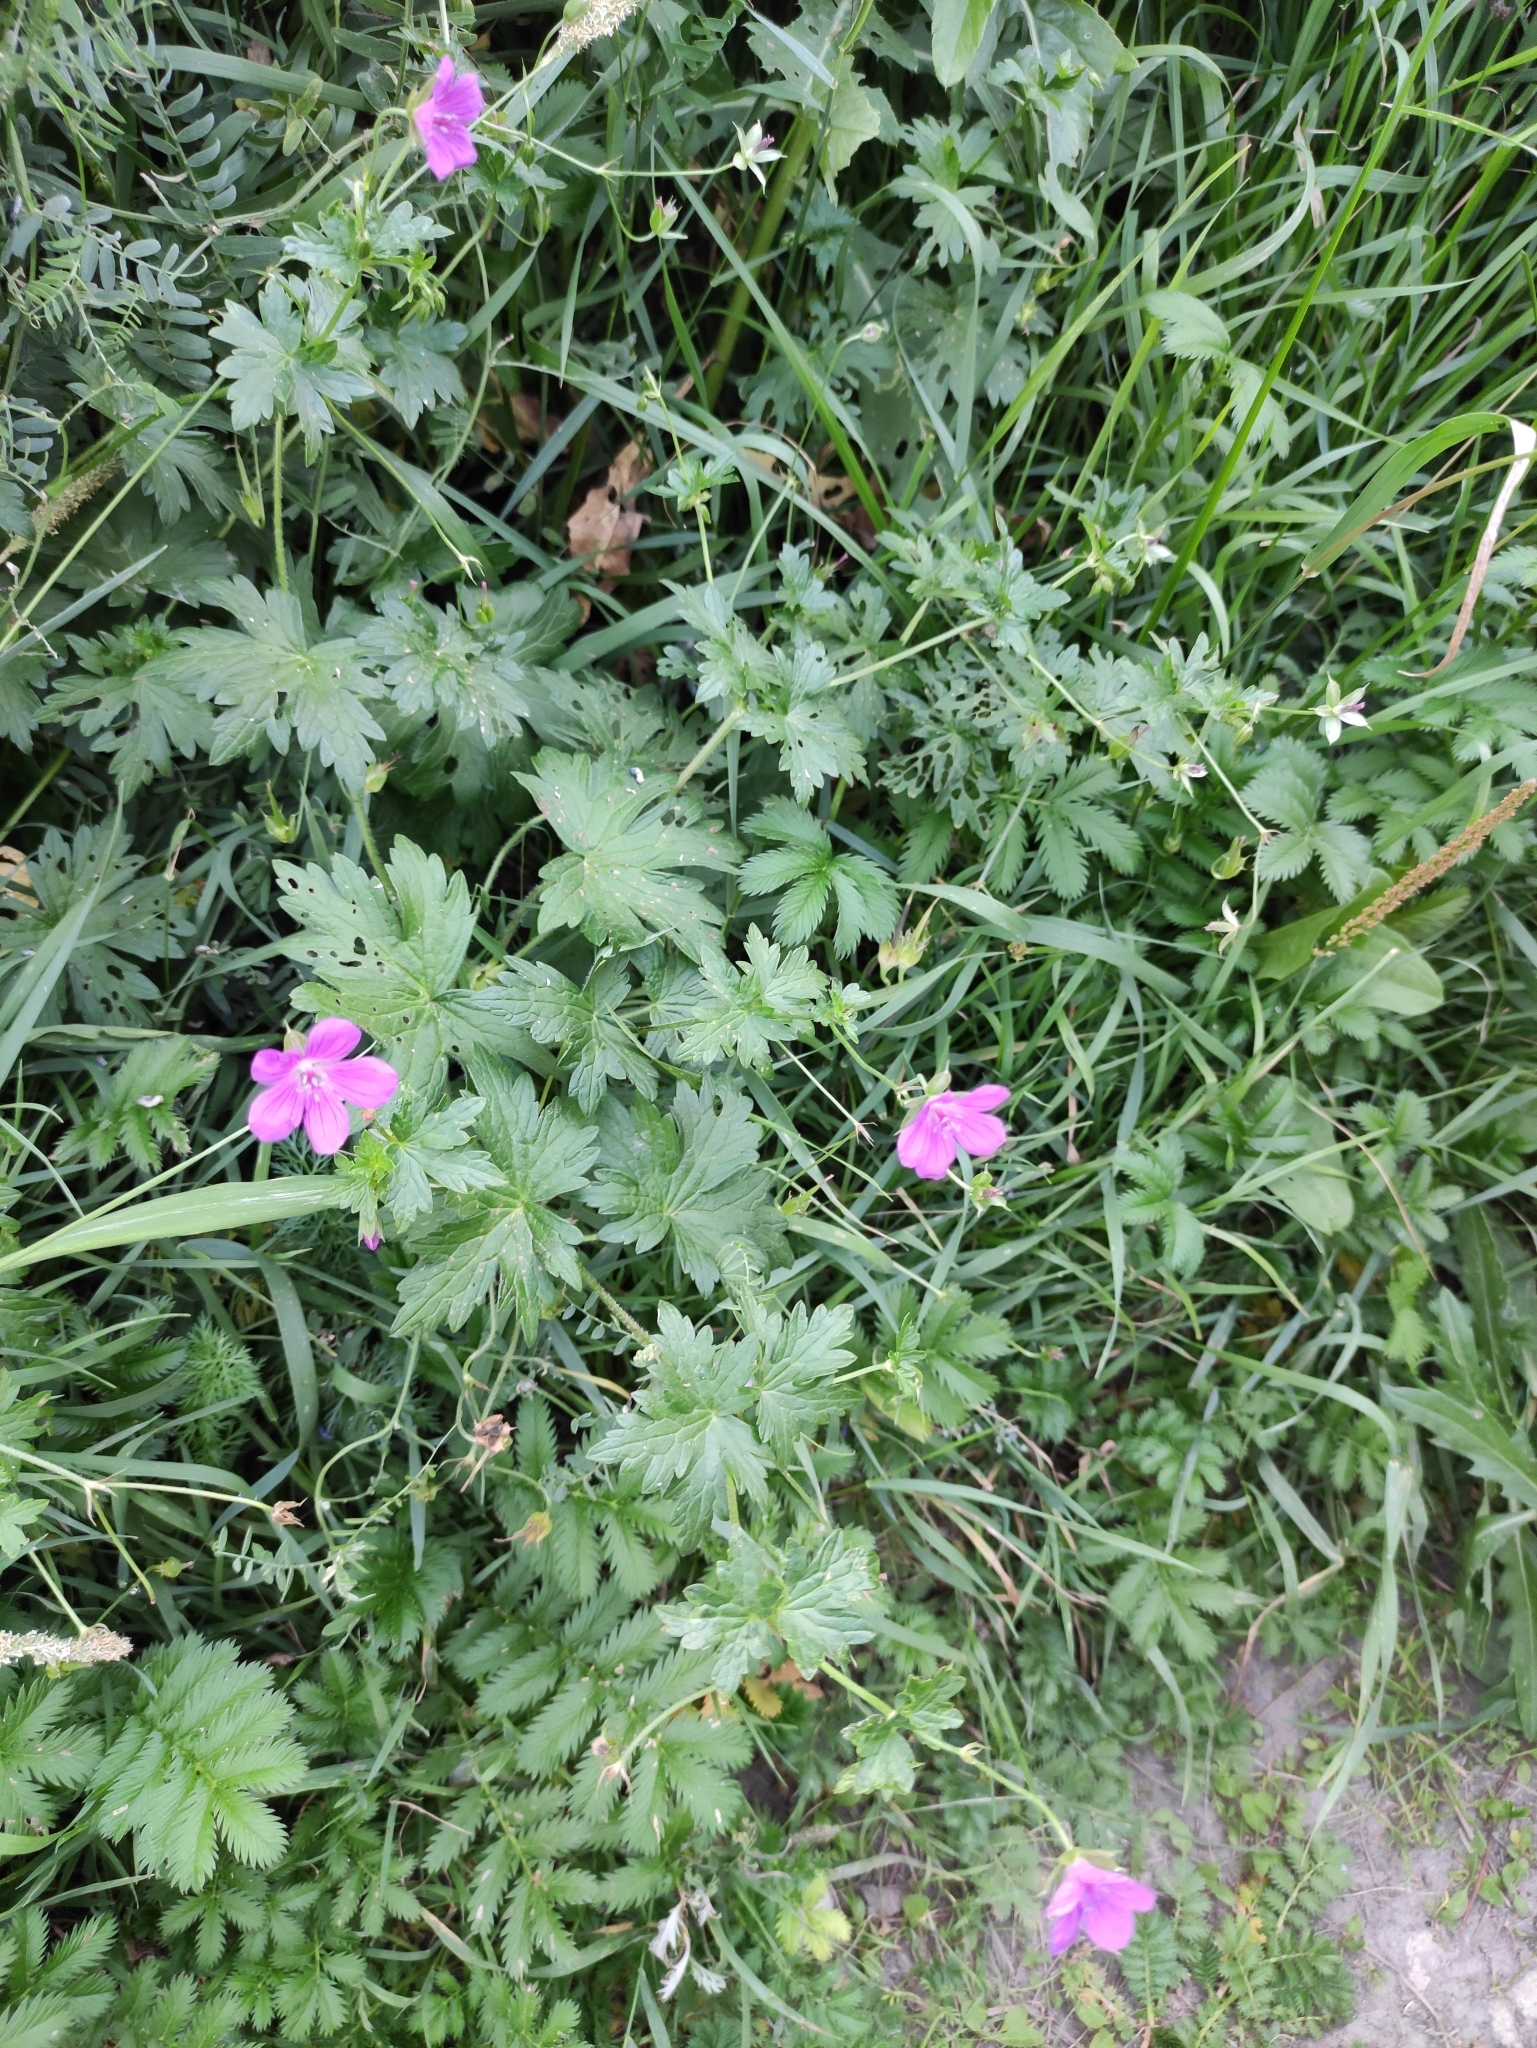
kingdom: Plantae
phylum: Tracheophyta
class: Magnoliopsida
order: Geraniales
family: Geraniaceae
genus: Geranium
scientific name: Geranium palustre
